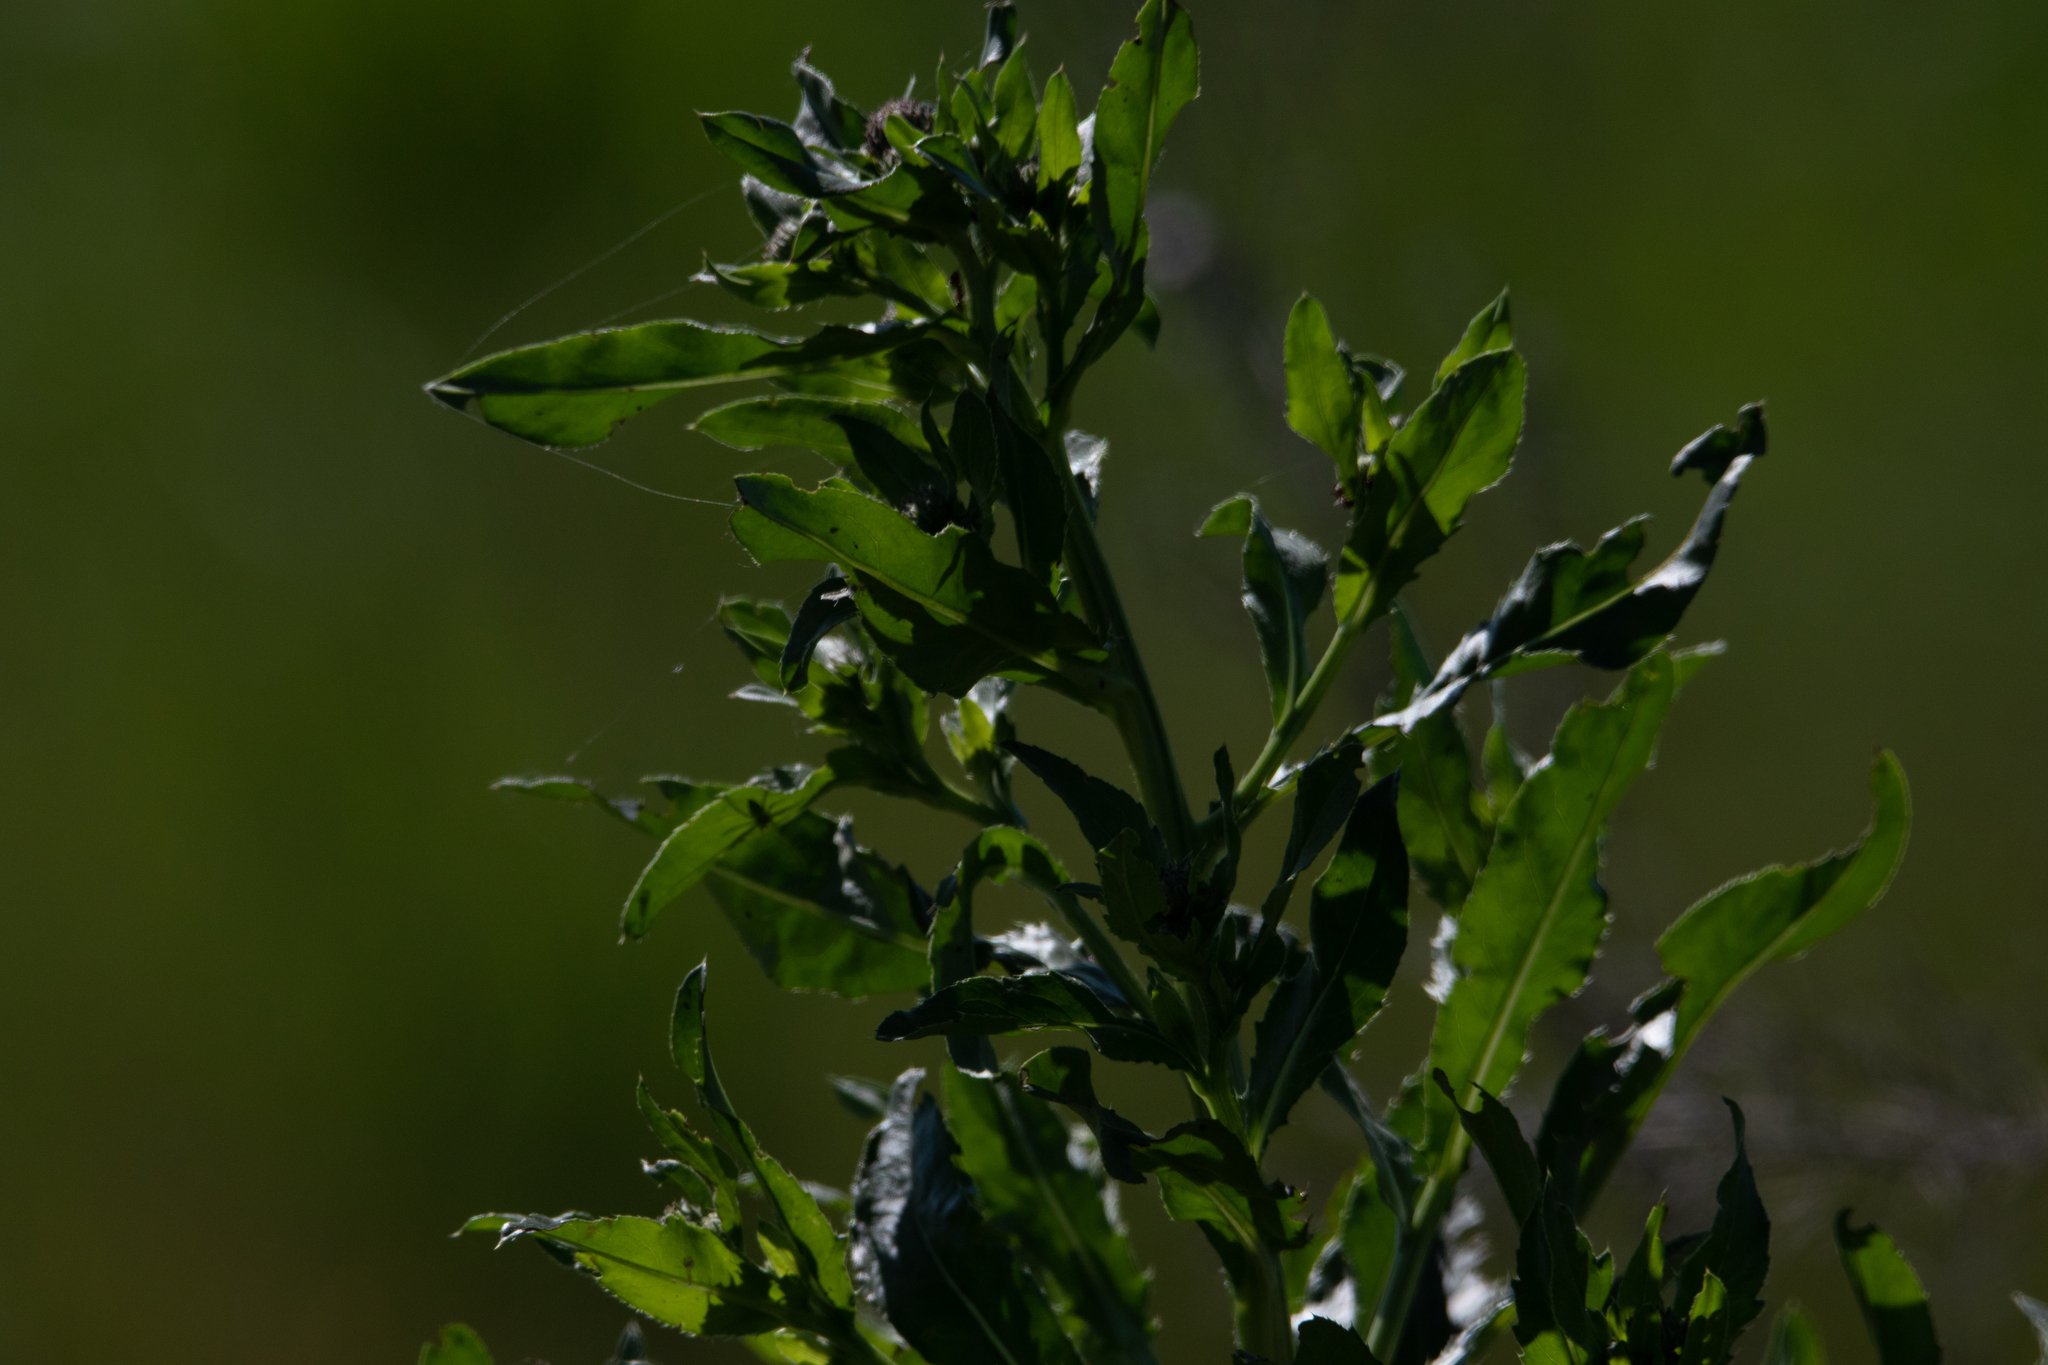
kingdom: Plantae
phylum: Tracheophyta
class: Magnoliopsida
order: Asterales
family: Asteraceae
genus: Cirsium
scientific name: Cirsium arvense
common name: Creeping thistle
